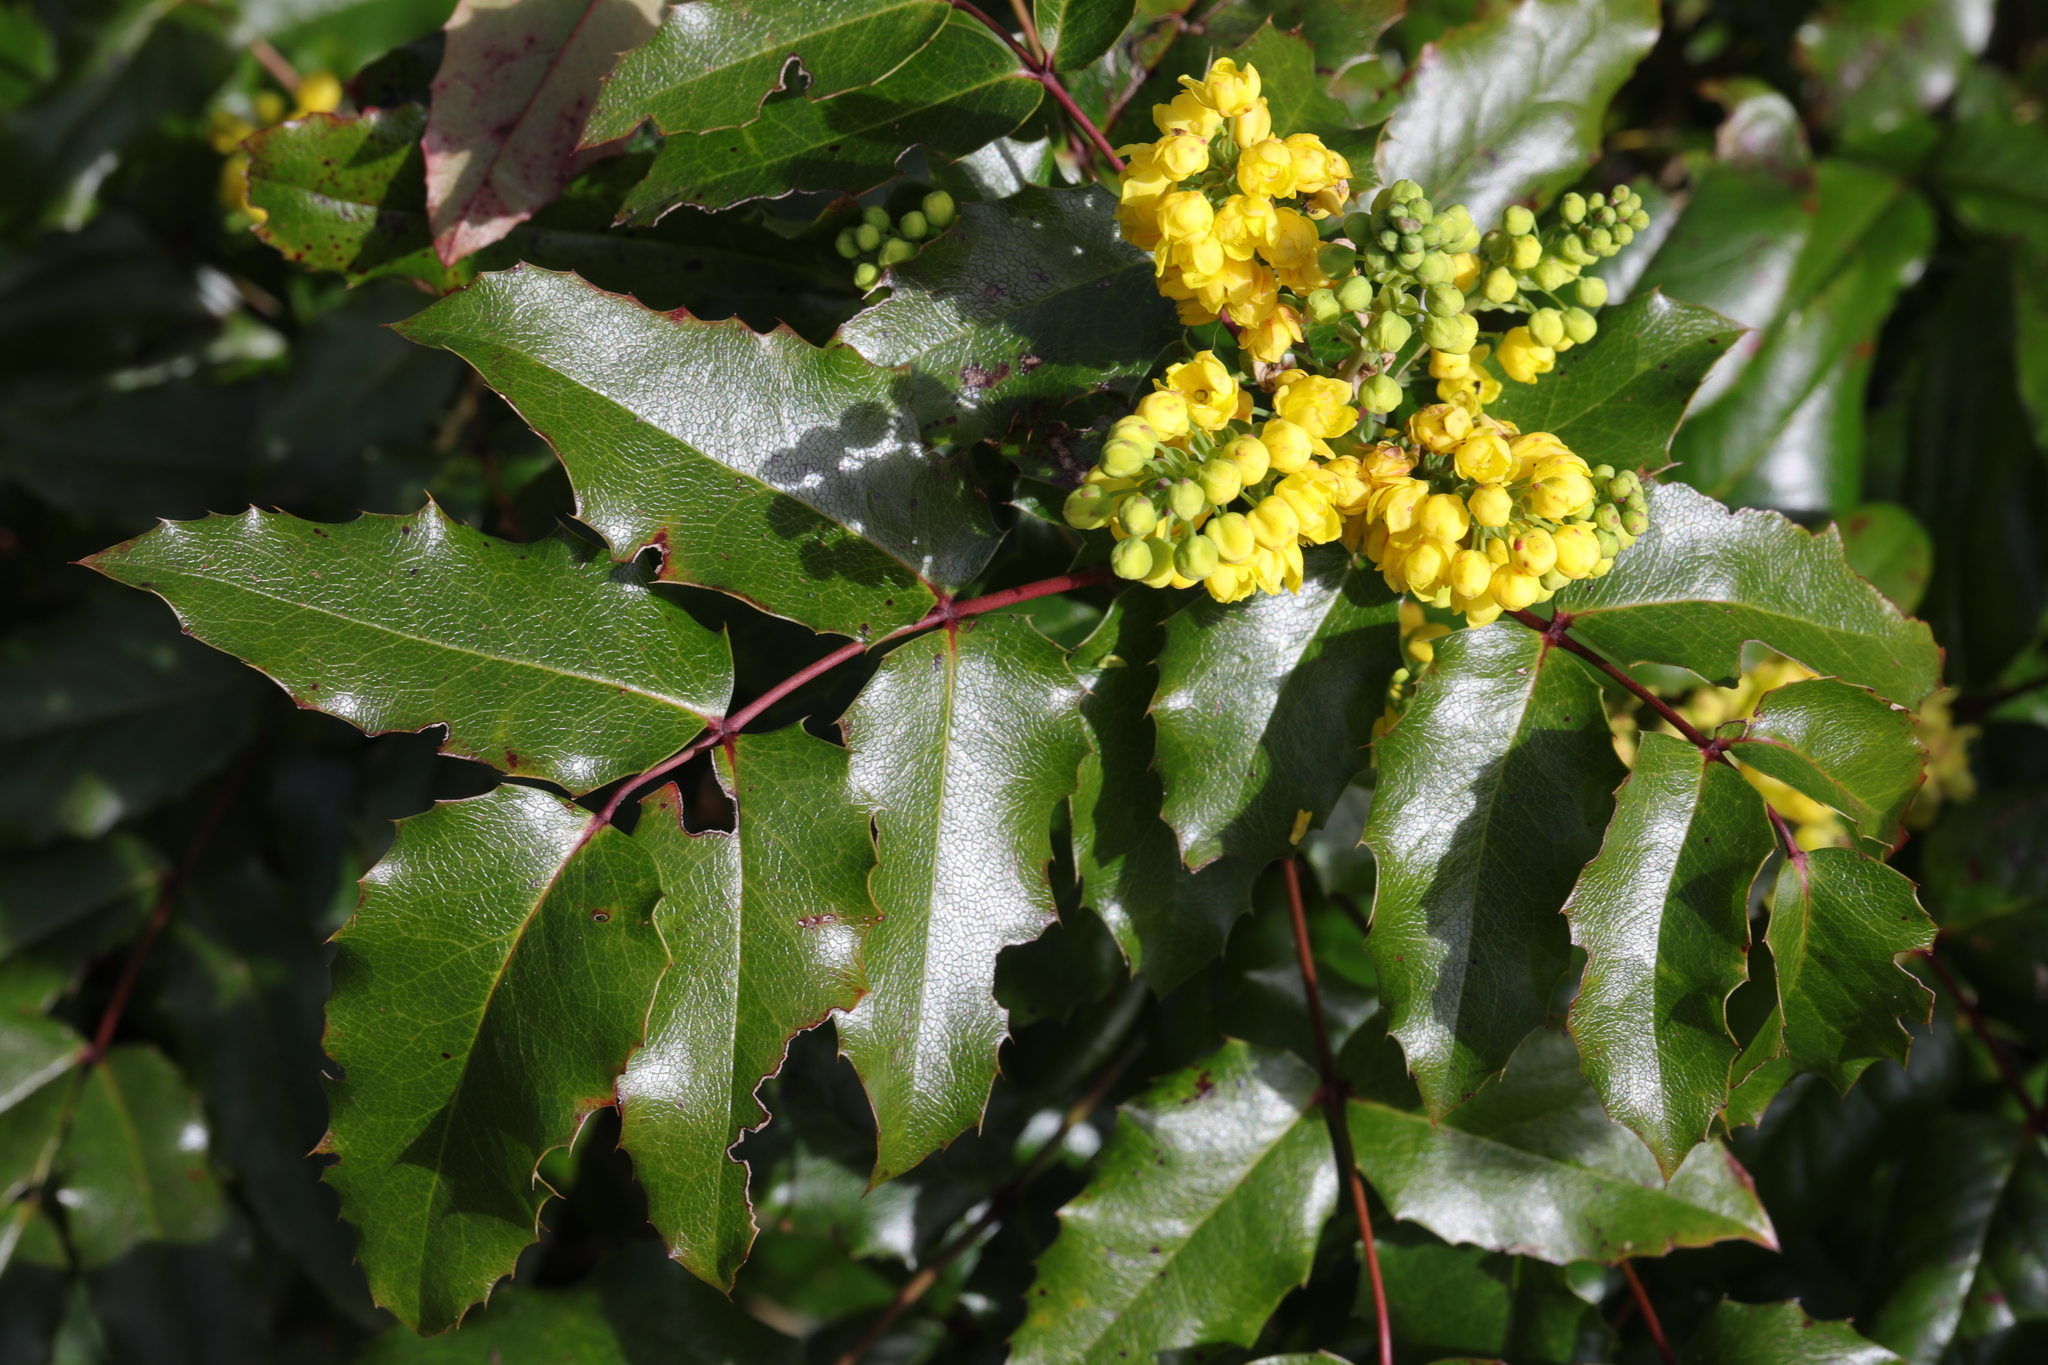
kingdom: Plantae
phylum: Tracheophyta
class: Magnoliopsida
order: Ranunculales
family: Berberidaceae
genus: Mahonia
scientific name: Mahonia aquifolium
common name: Oregon-grape
